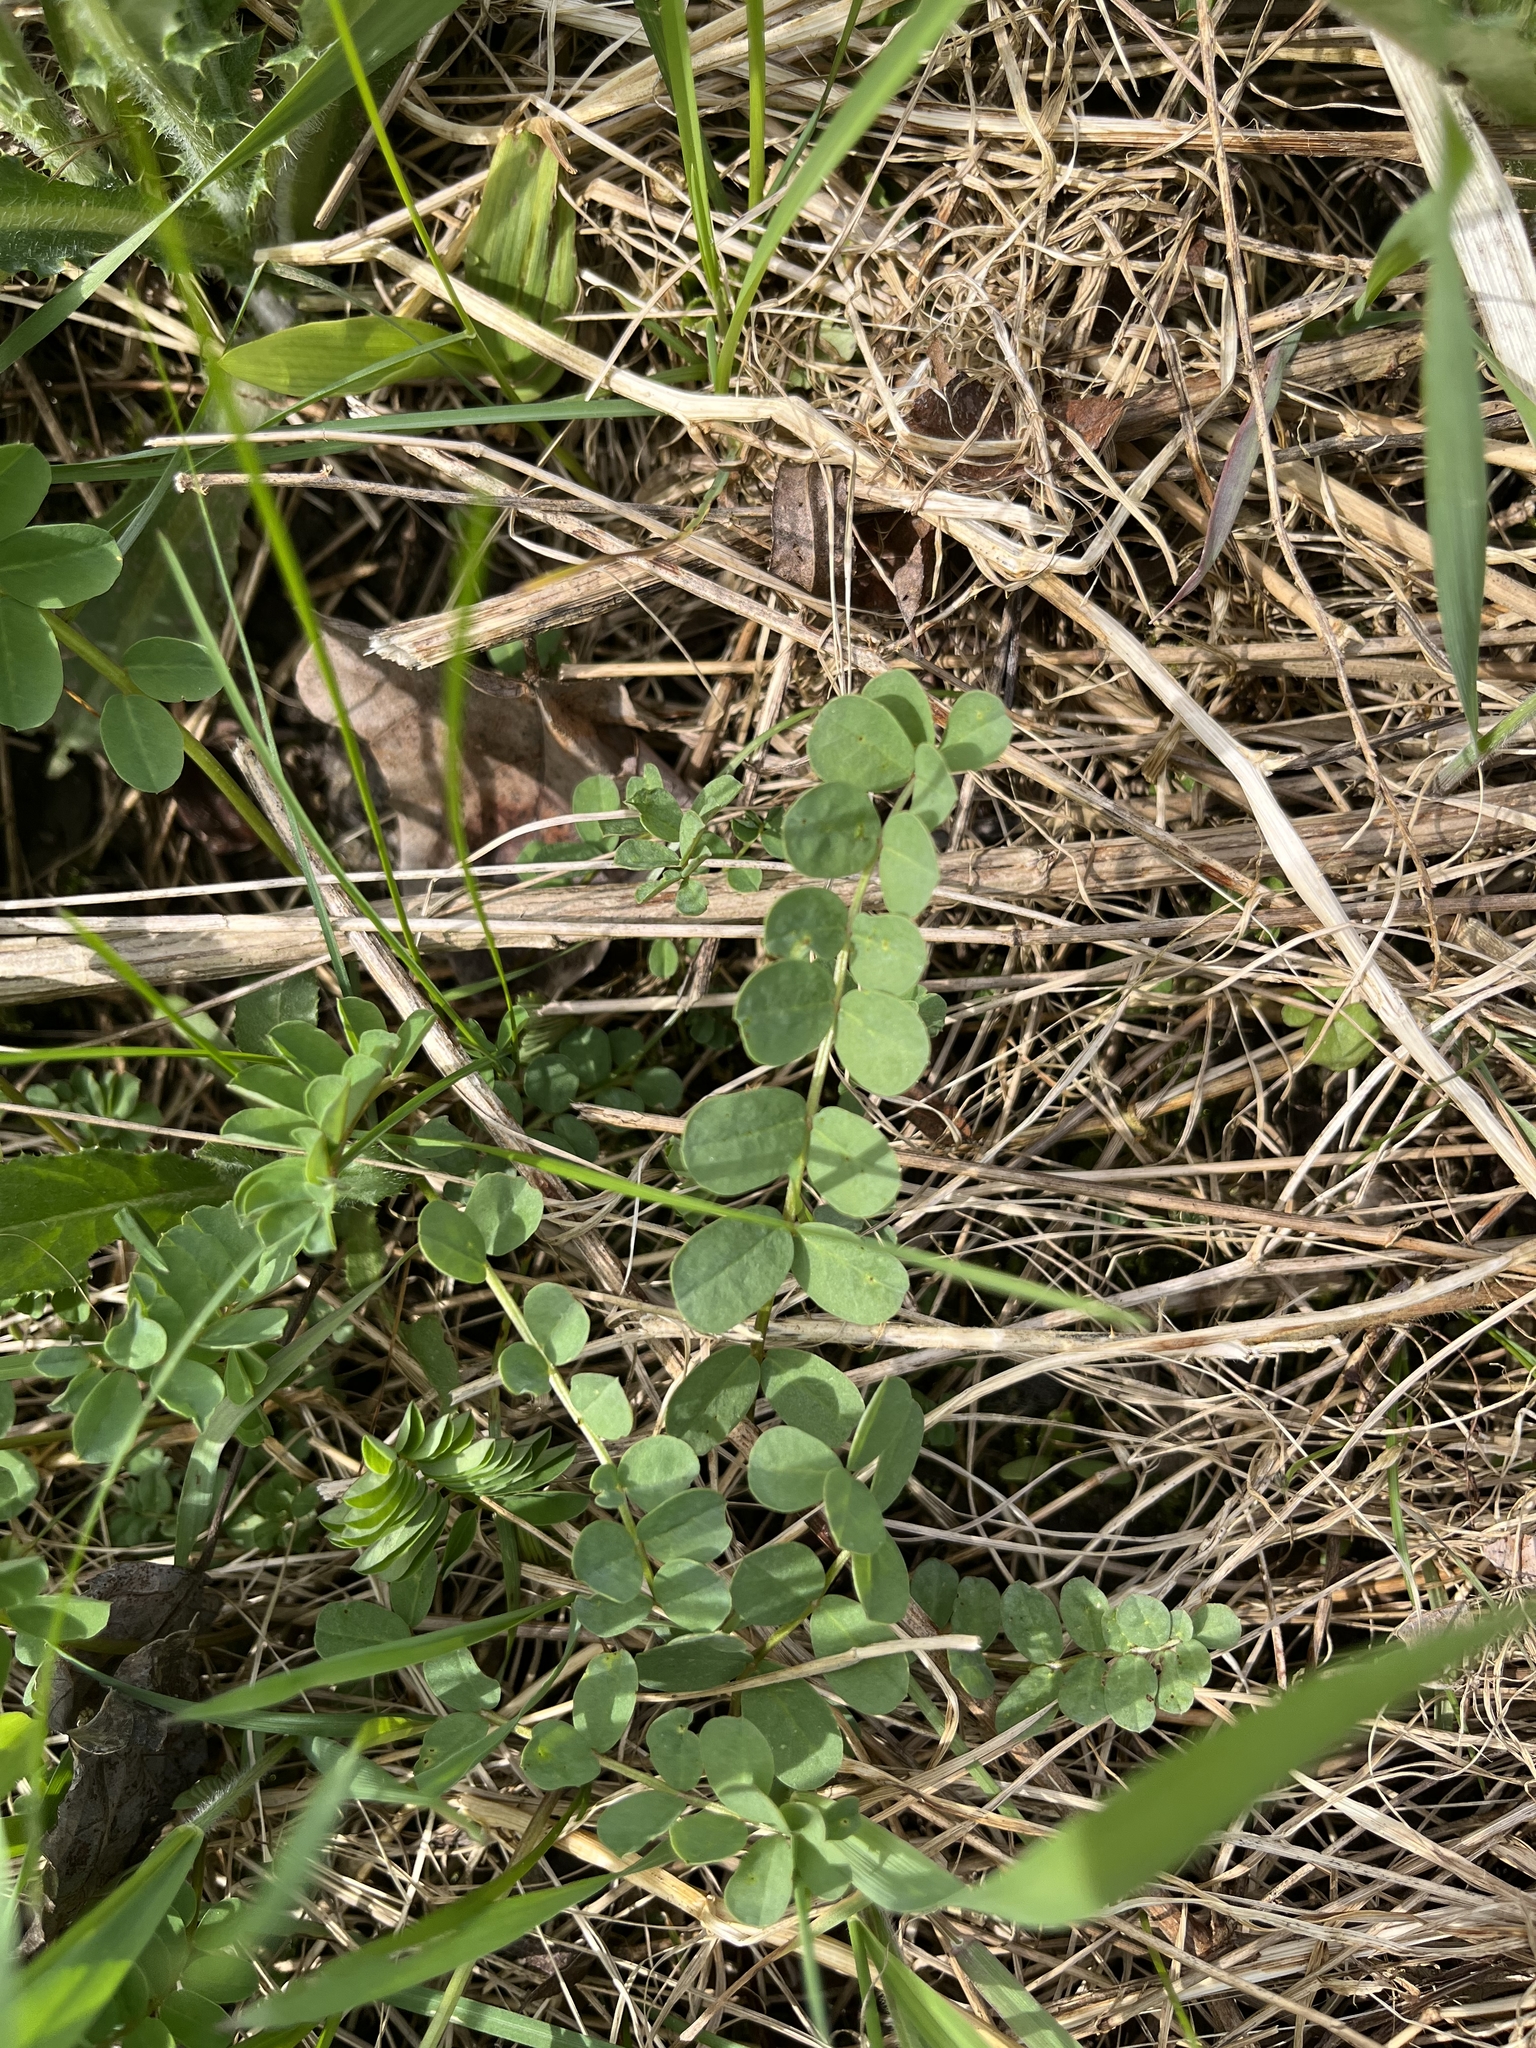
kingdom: Plantae
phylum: Tracheophyta
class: Magnoliopsida
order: Fabales
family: Fabaceae
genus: Coronilla
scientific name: Coronilla varia
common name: Crownvetch
